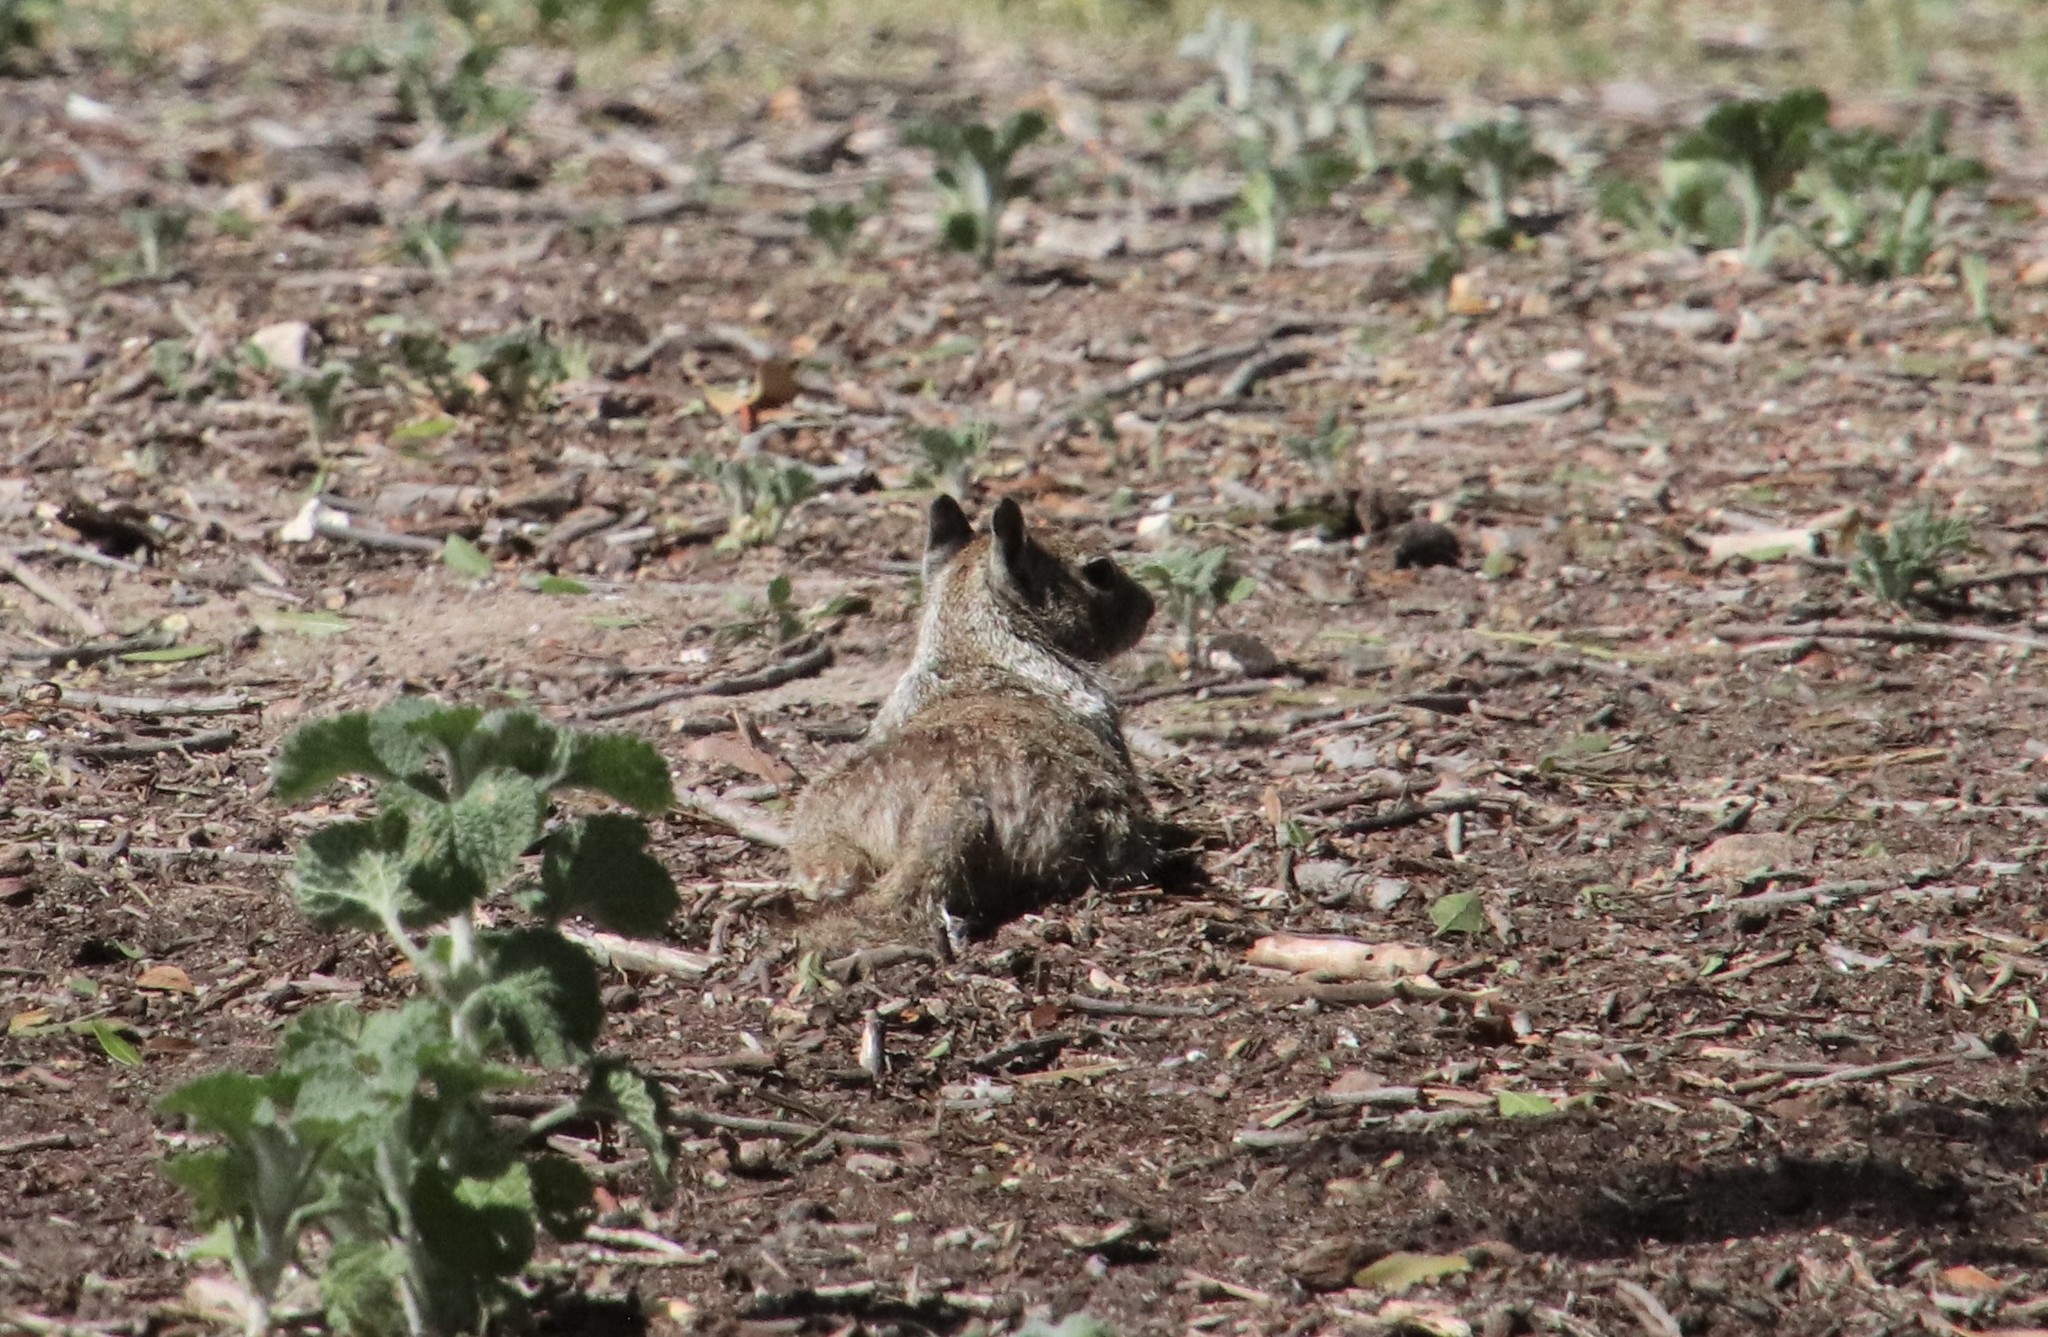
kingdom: Animalia
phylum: Chordata
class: Mammalia
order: Rodentia
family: Sciuridae
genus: Otospermophilus
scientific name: Otospermophilus beecheyi
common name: California ground squirrel
